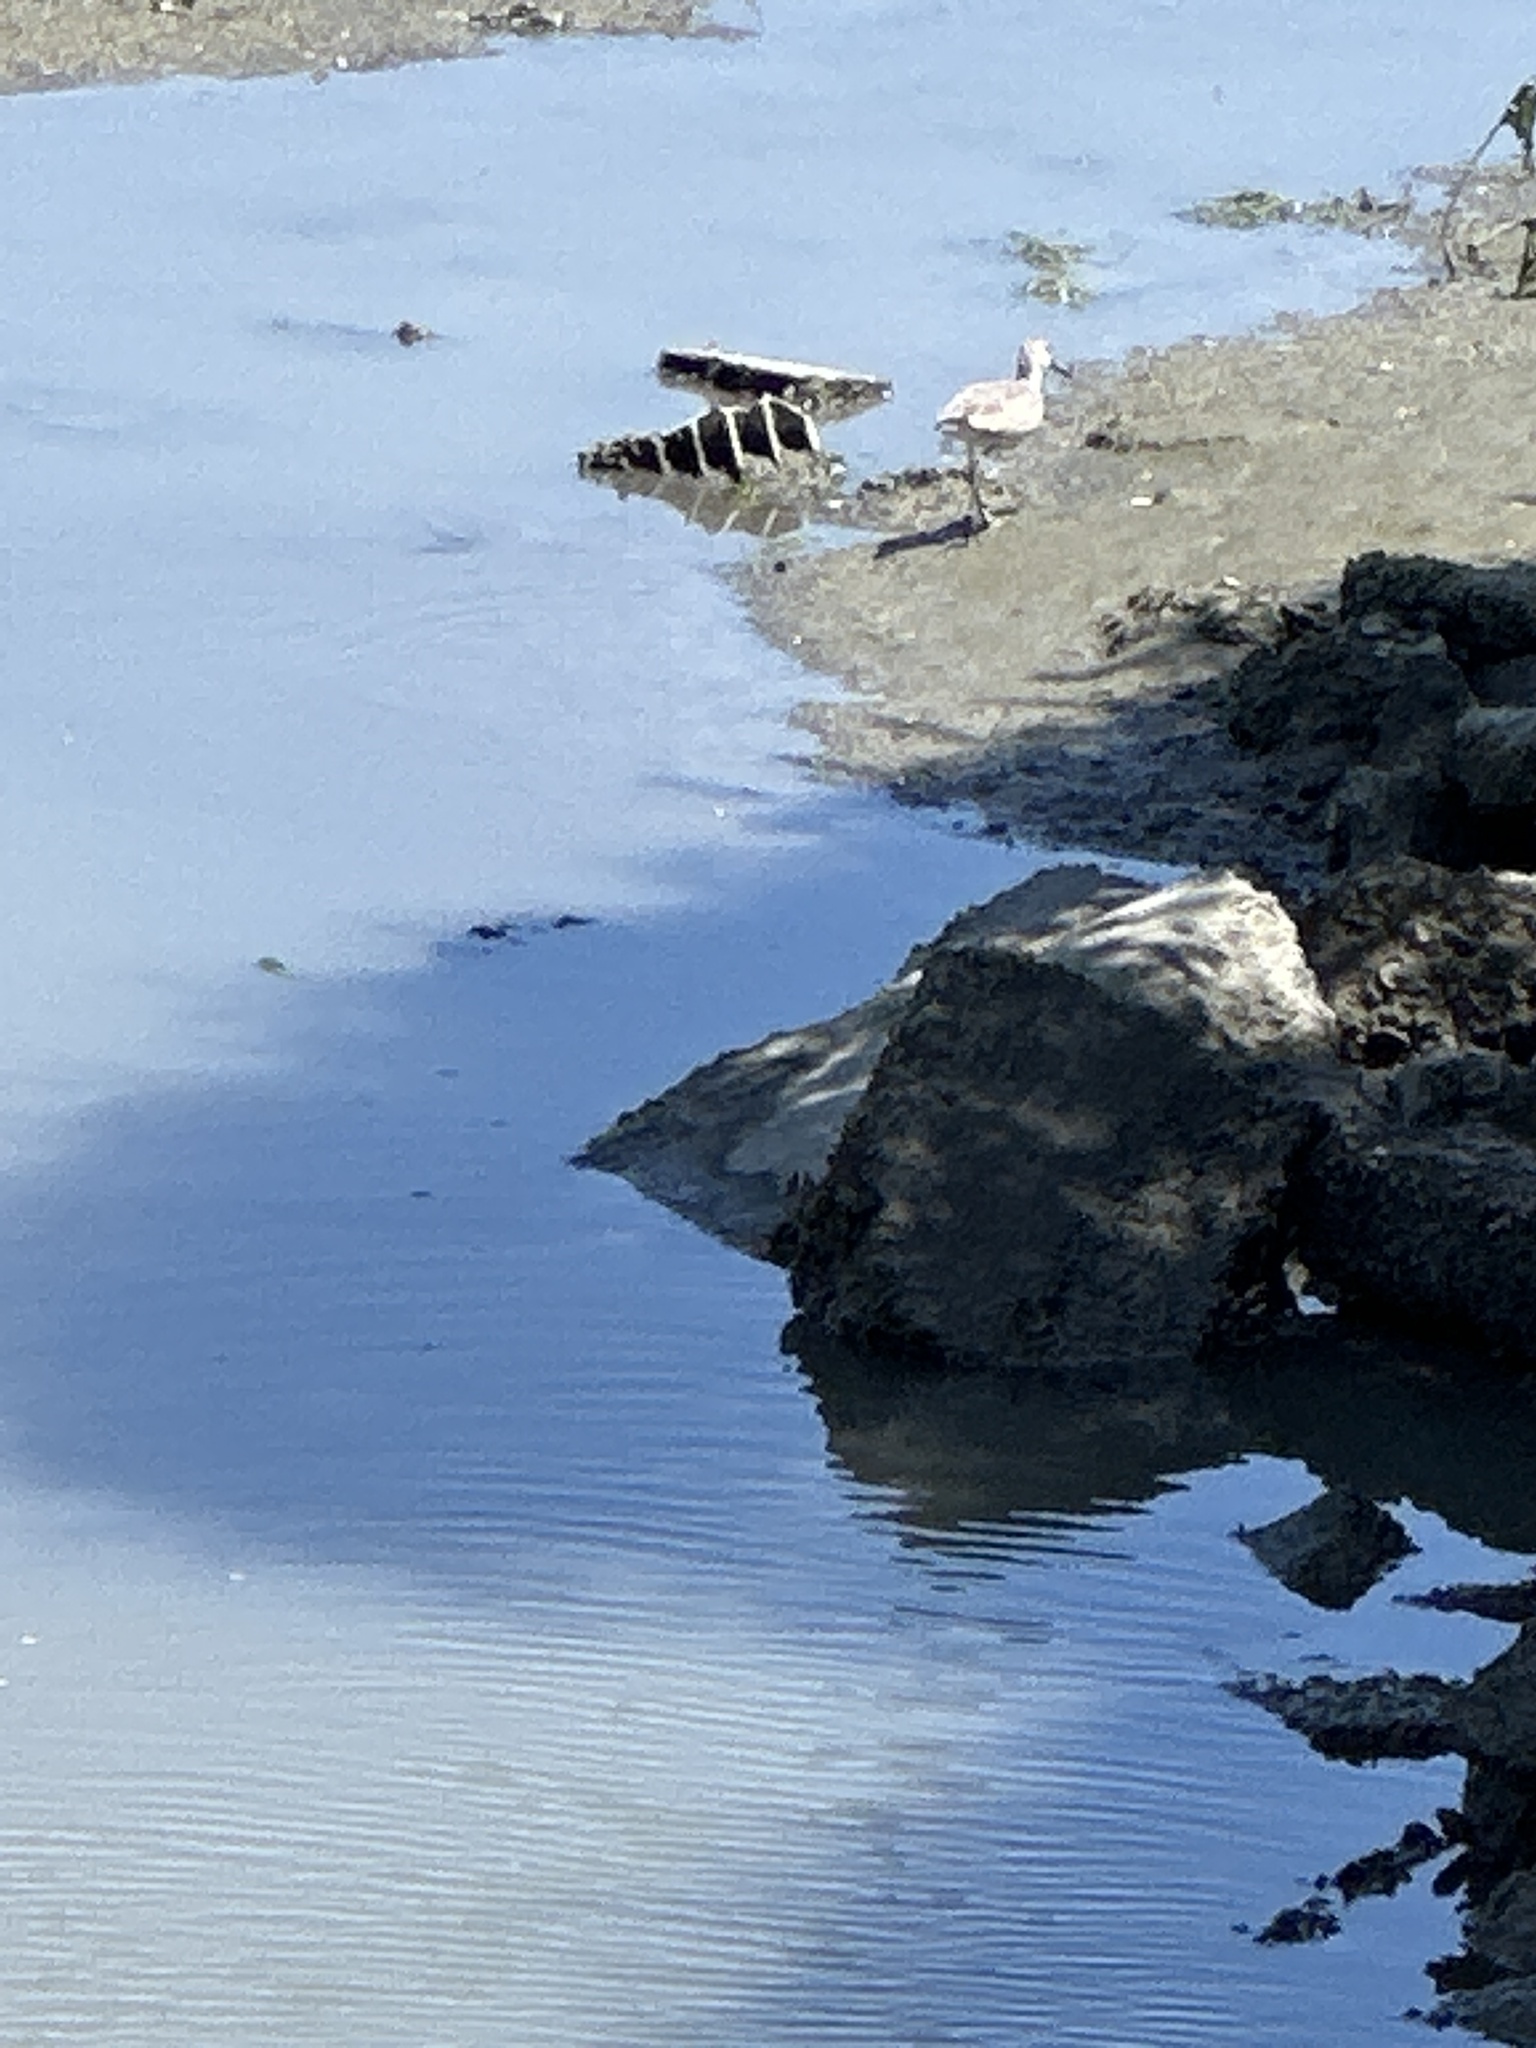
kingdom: Animalia
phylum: Chordata
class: Aves
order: Charadriiformes
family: Scolopacidae
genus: Tringa
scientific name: Tringa semipalmata
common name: Willet
